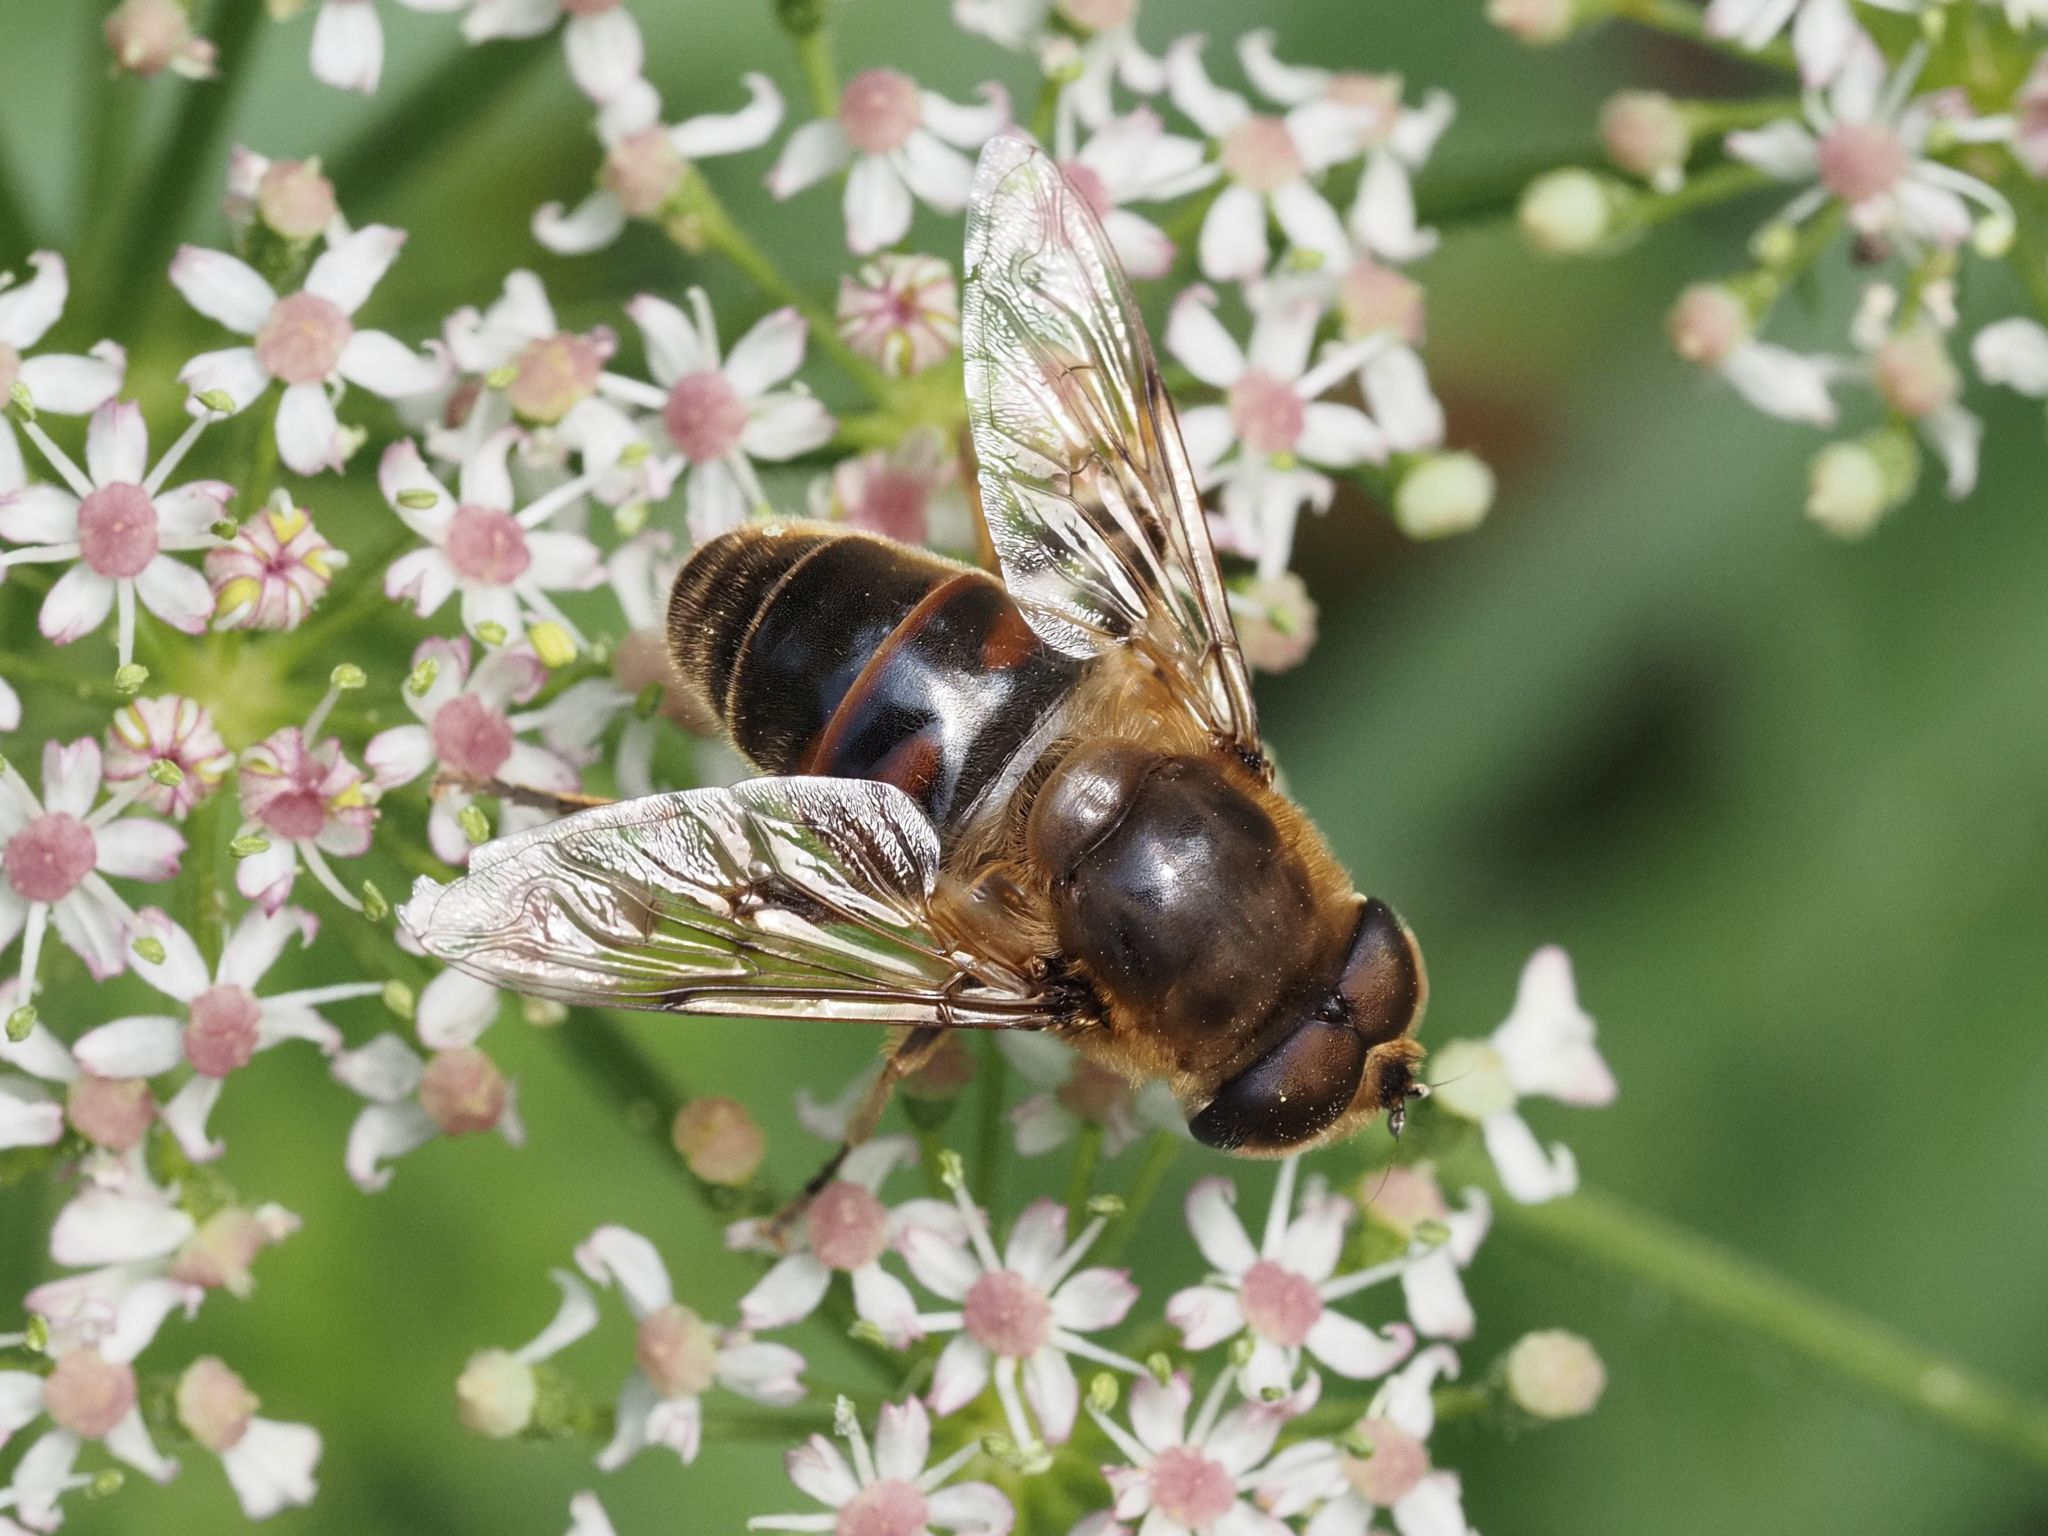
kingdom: Animalia
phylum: Arthropoda
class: Insecta
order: Diptera
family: Syrphidae
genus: Eristalis
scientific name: Eristalis tenax
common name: Drone fly
